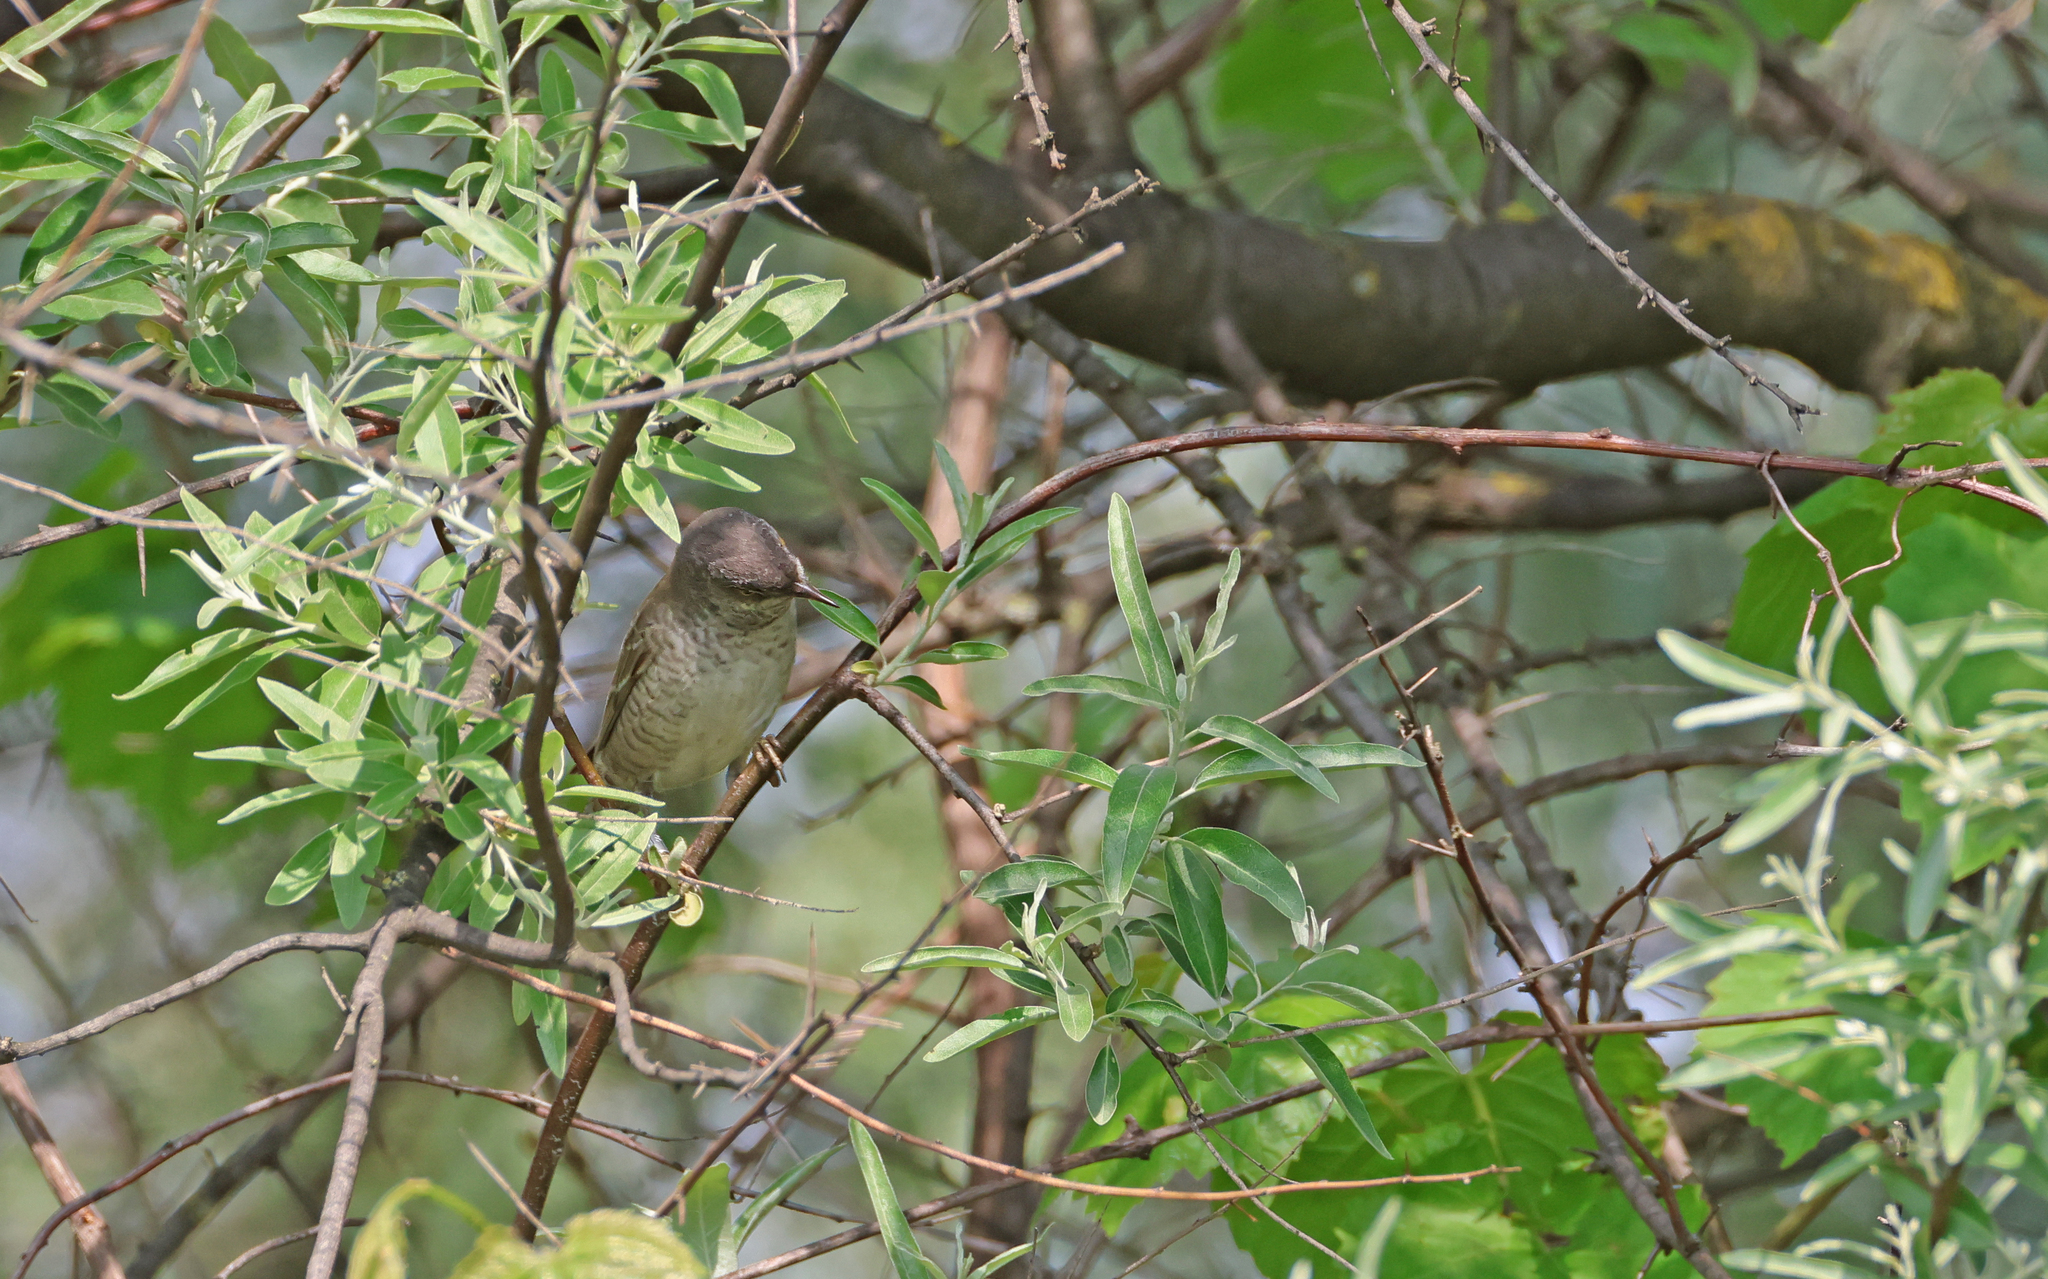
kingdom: Animalia
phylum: Chordata
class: Aves
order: Passeriformes
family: Sylviidae
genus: Sylvia
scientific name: Sylvia nisoria
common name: Barred warbler
